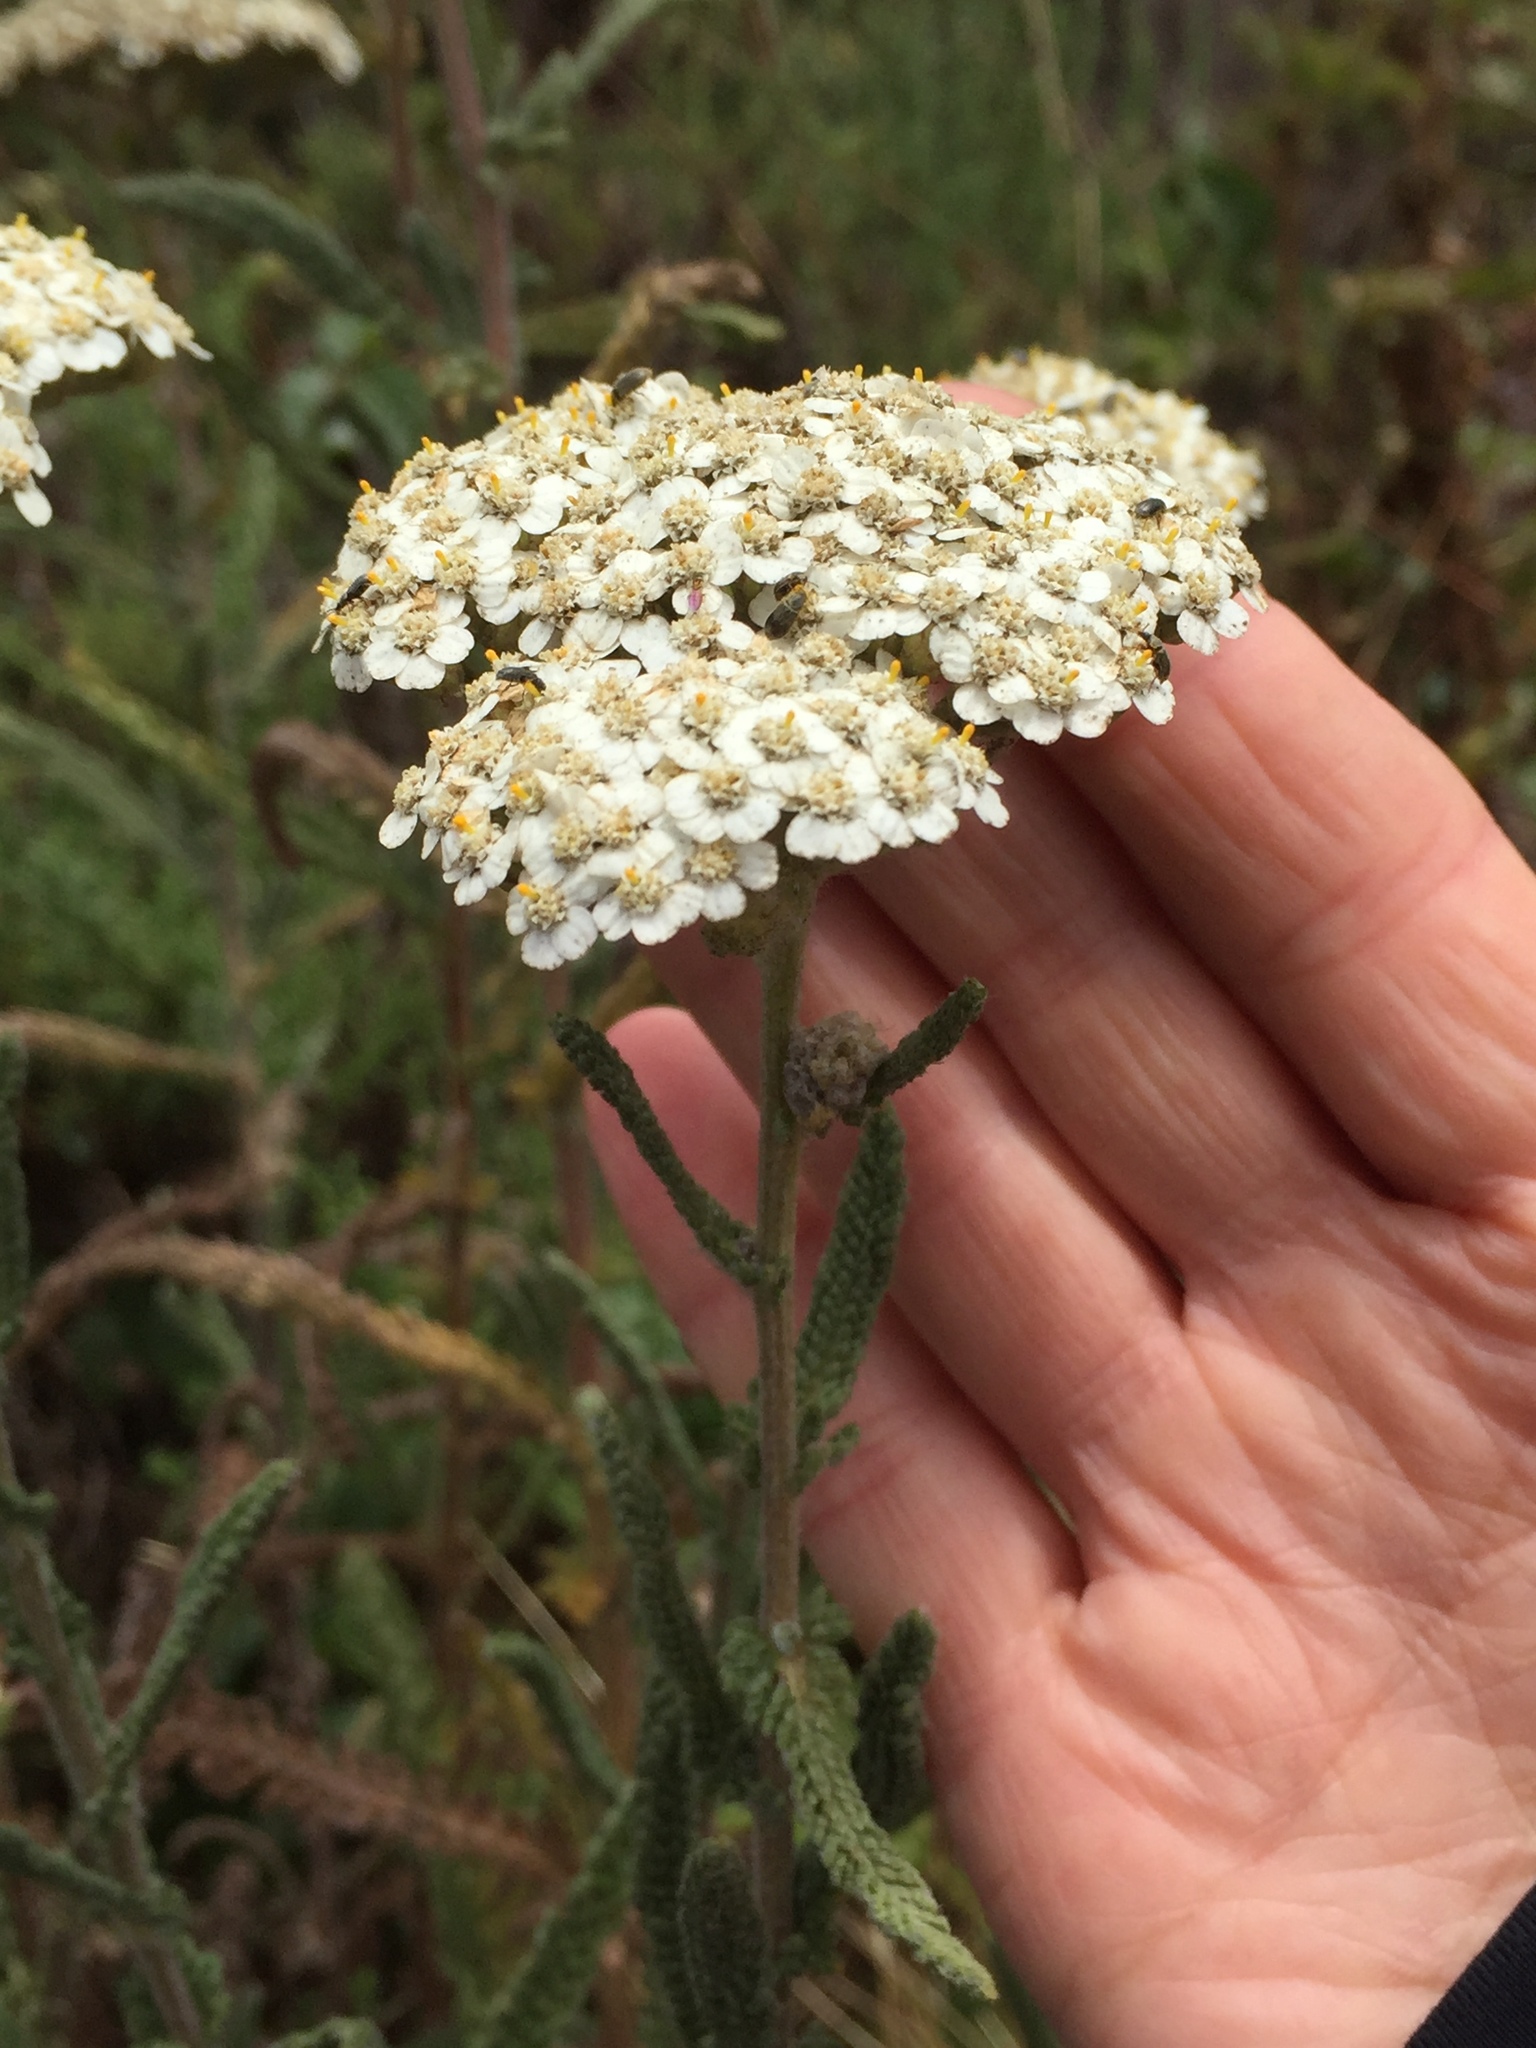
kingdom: Plantae
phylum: Tracheophyta
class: Magnoliopsida
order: Asterales
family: Asteraceae
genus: Achillea
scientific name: Achillea millefolium
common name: Yarrow
